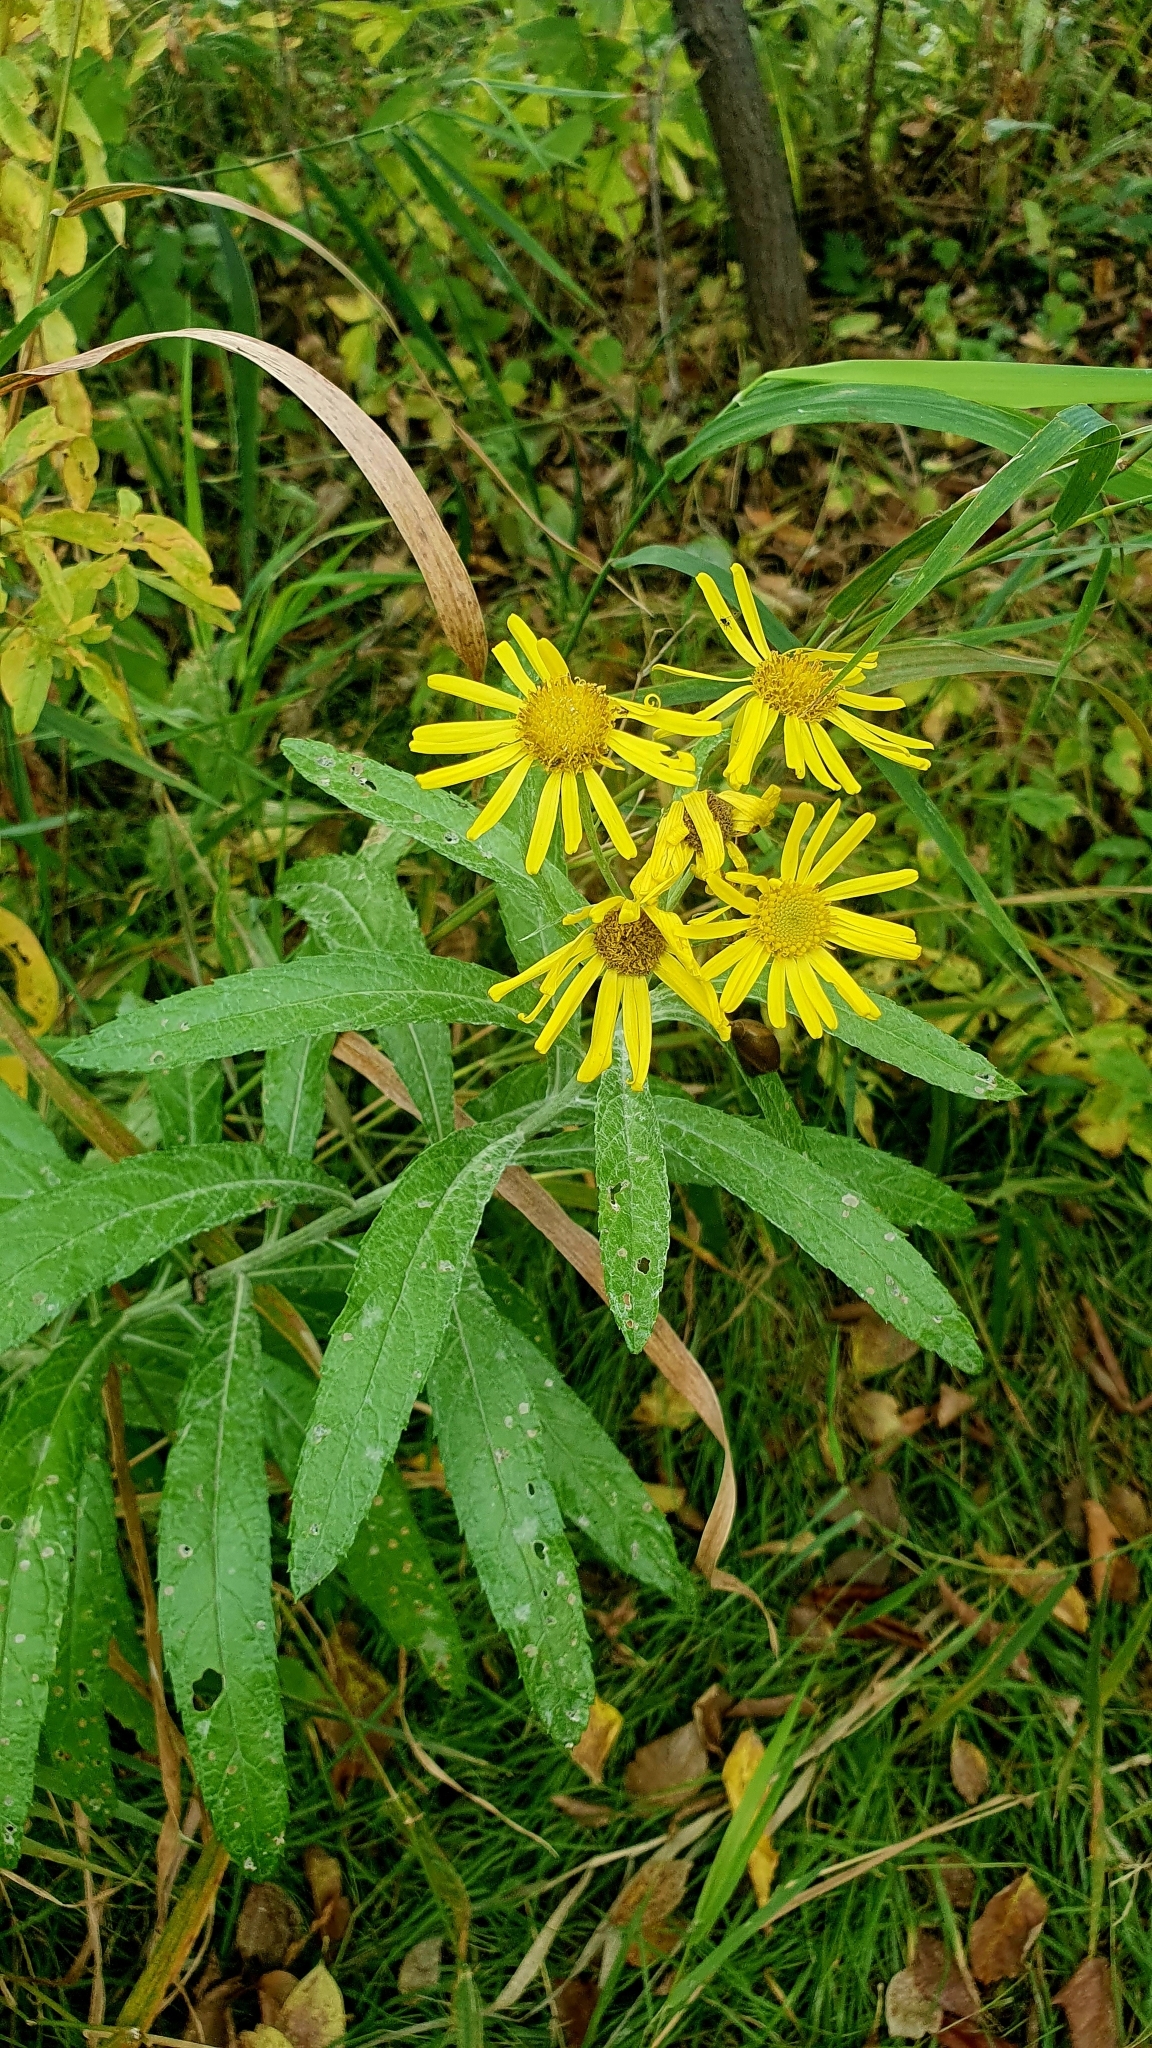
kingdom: Plantae
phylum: Tracheophyta
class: Magnoliopsida
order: Asterales
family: Asteraceae
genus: Jacobaea
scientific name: Jacobaea paludosa
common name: Fen ragwort
